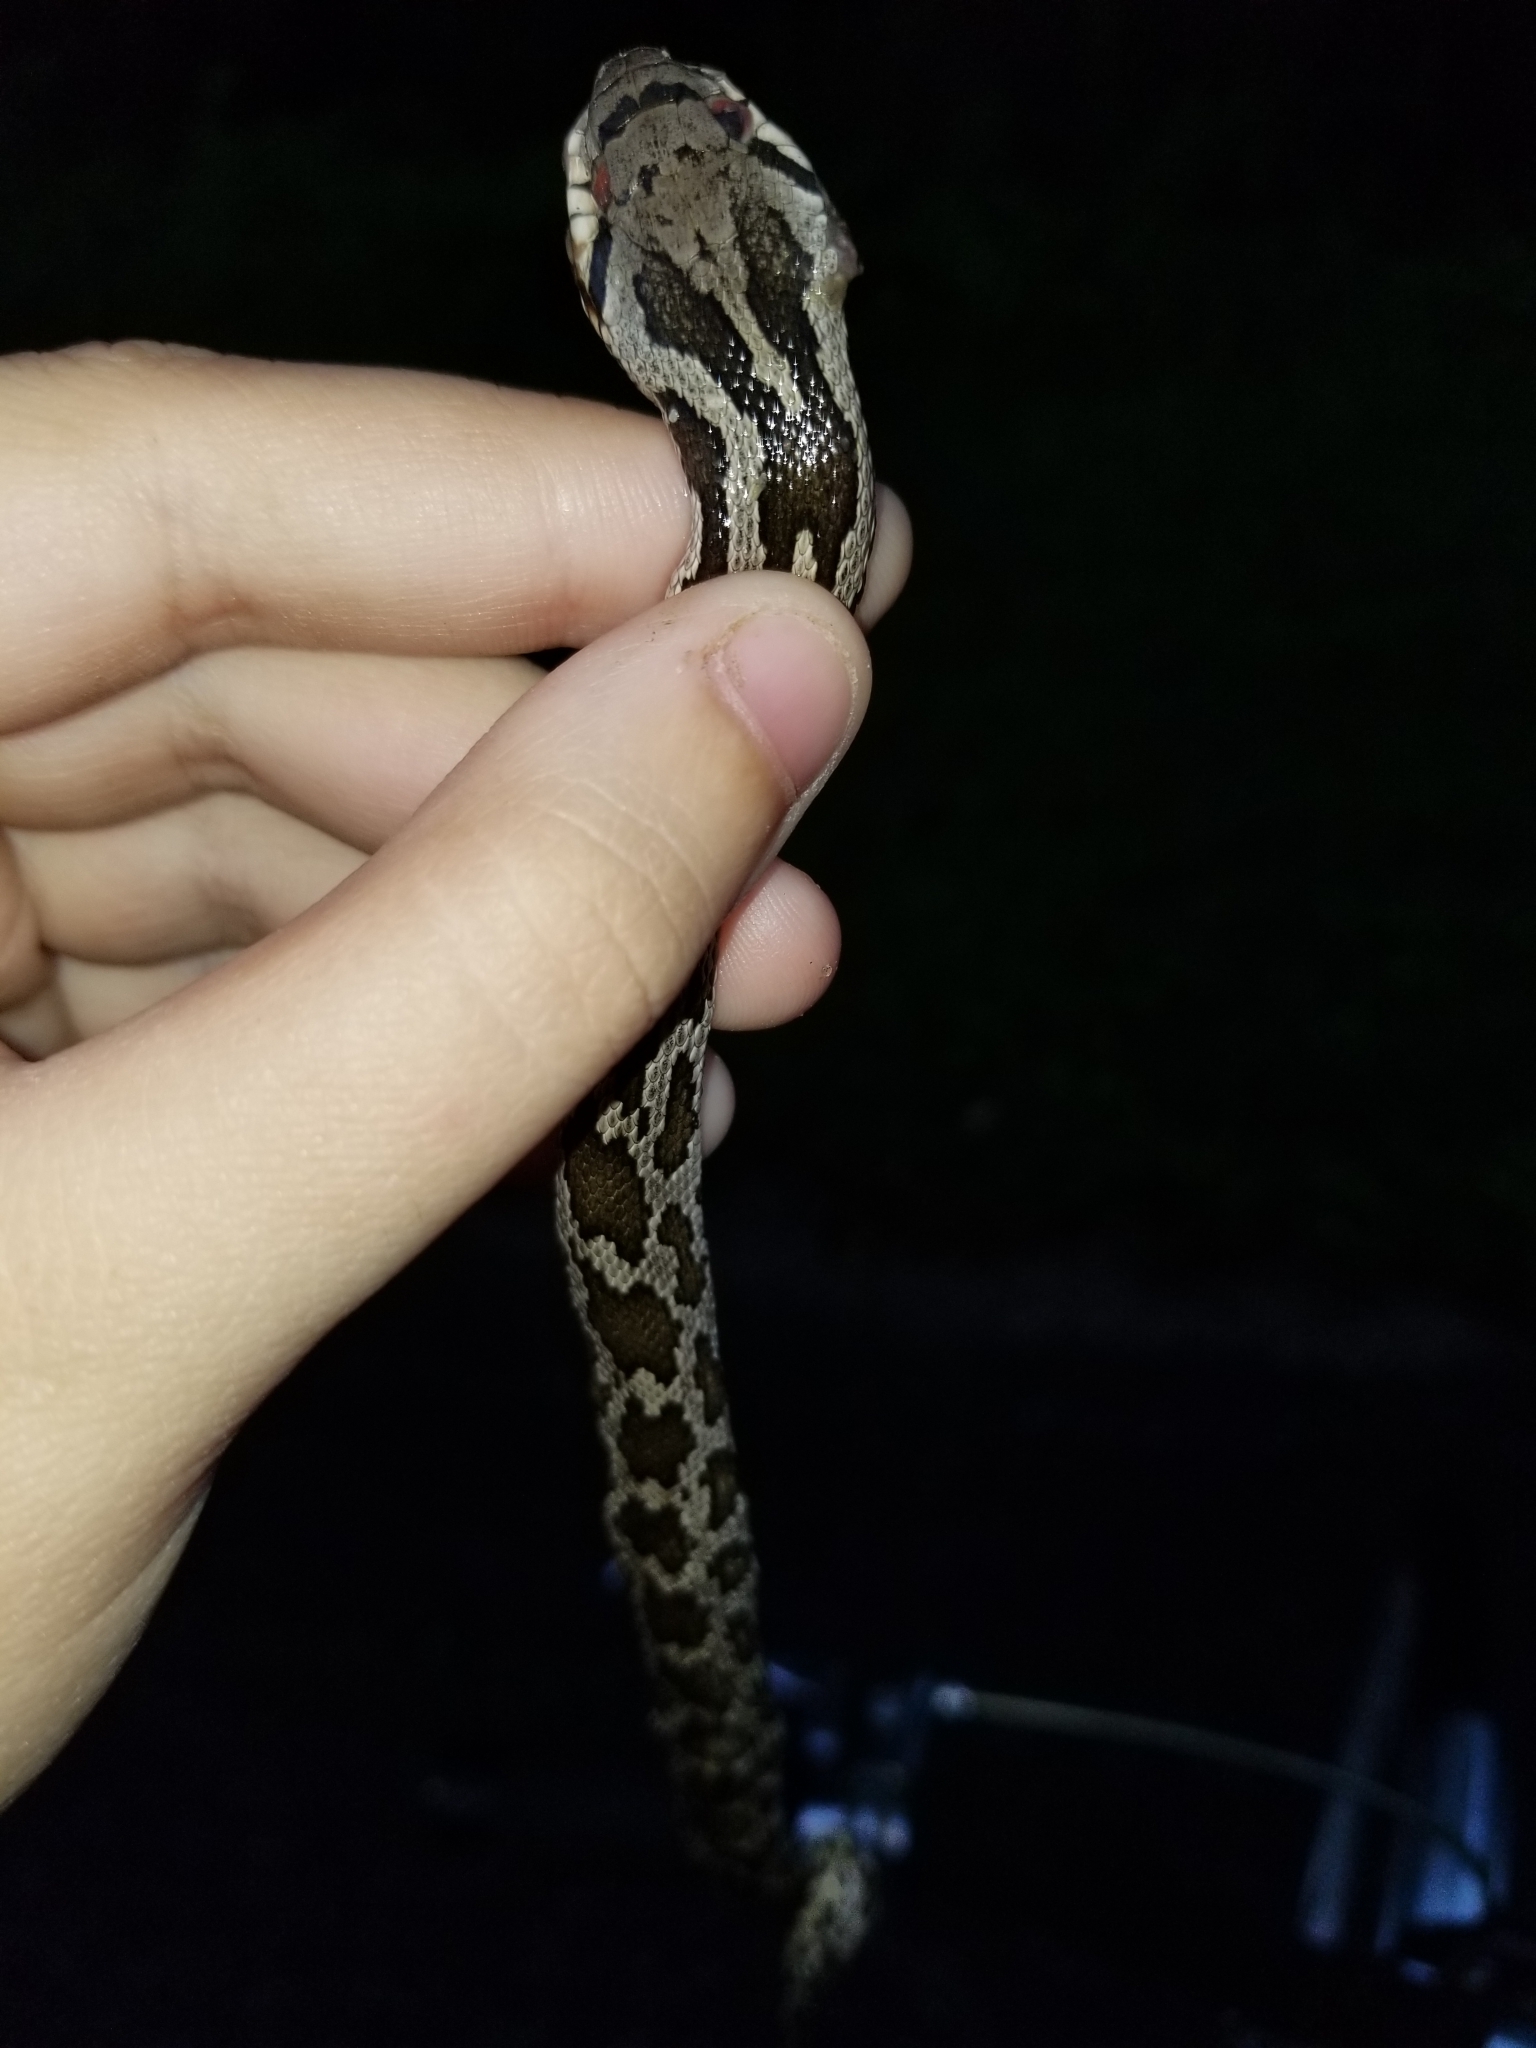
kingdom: Animalia
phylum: Chordata
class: Squamata
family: Colubridae
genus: Pantherophis
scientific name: Pantherophis spiloides
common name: Gray rat snake
